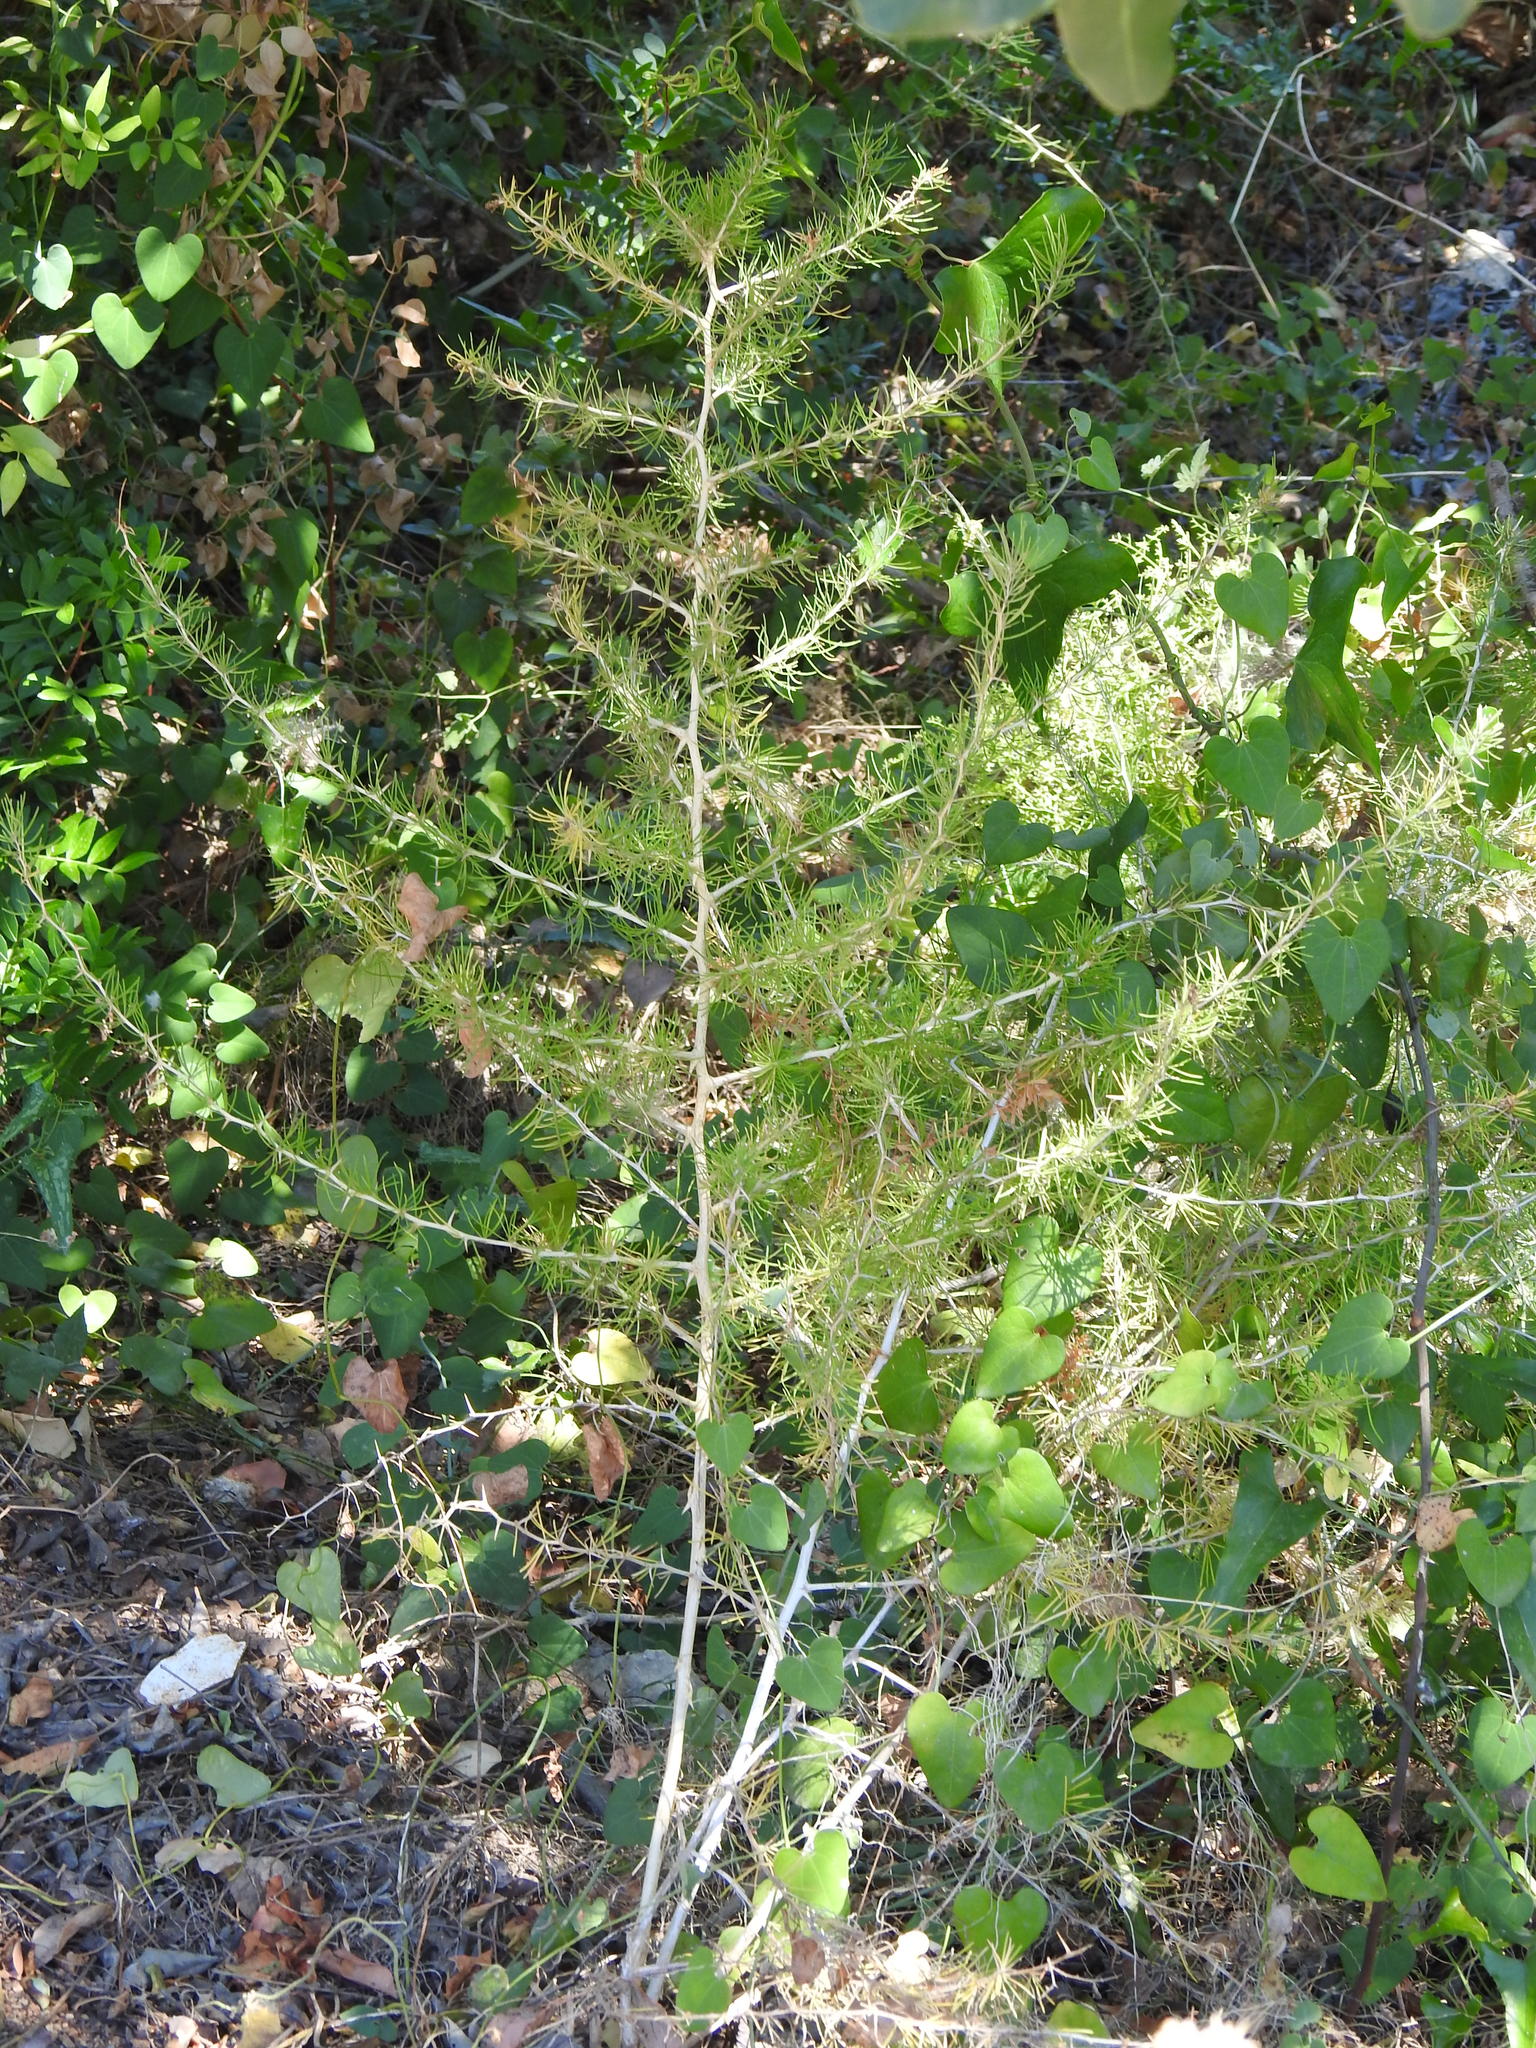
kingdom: Plantae
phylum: Tracheophyta
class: Liliopsida
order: Asparagales
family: Asparagaceae
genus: Asparagus
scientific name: Asparagus albus
